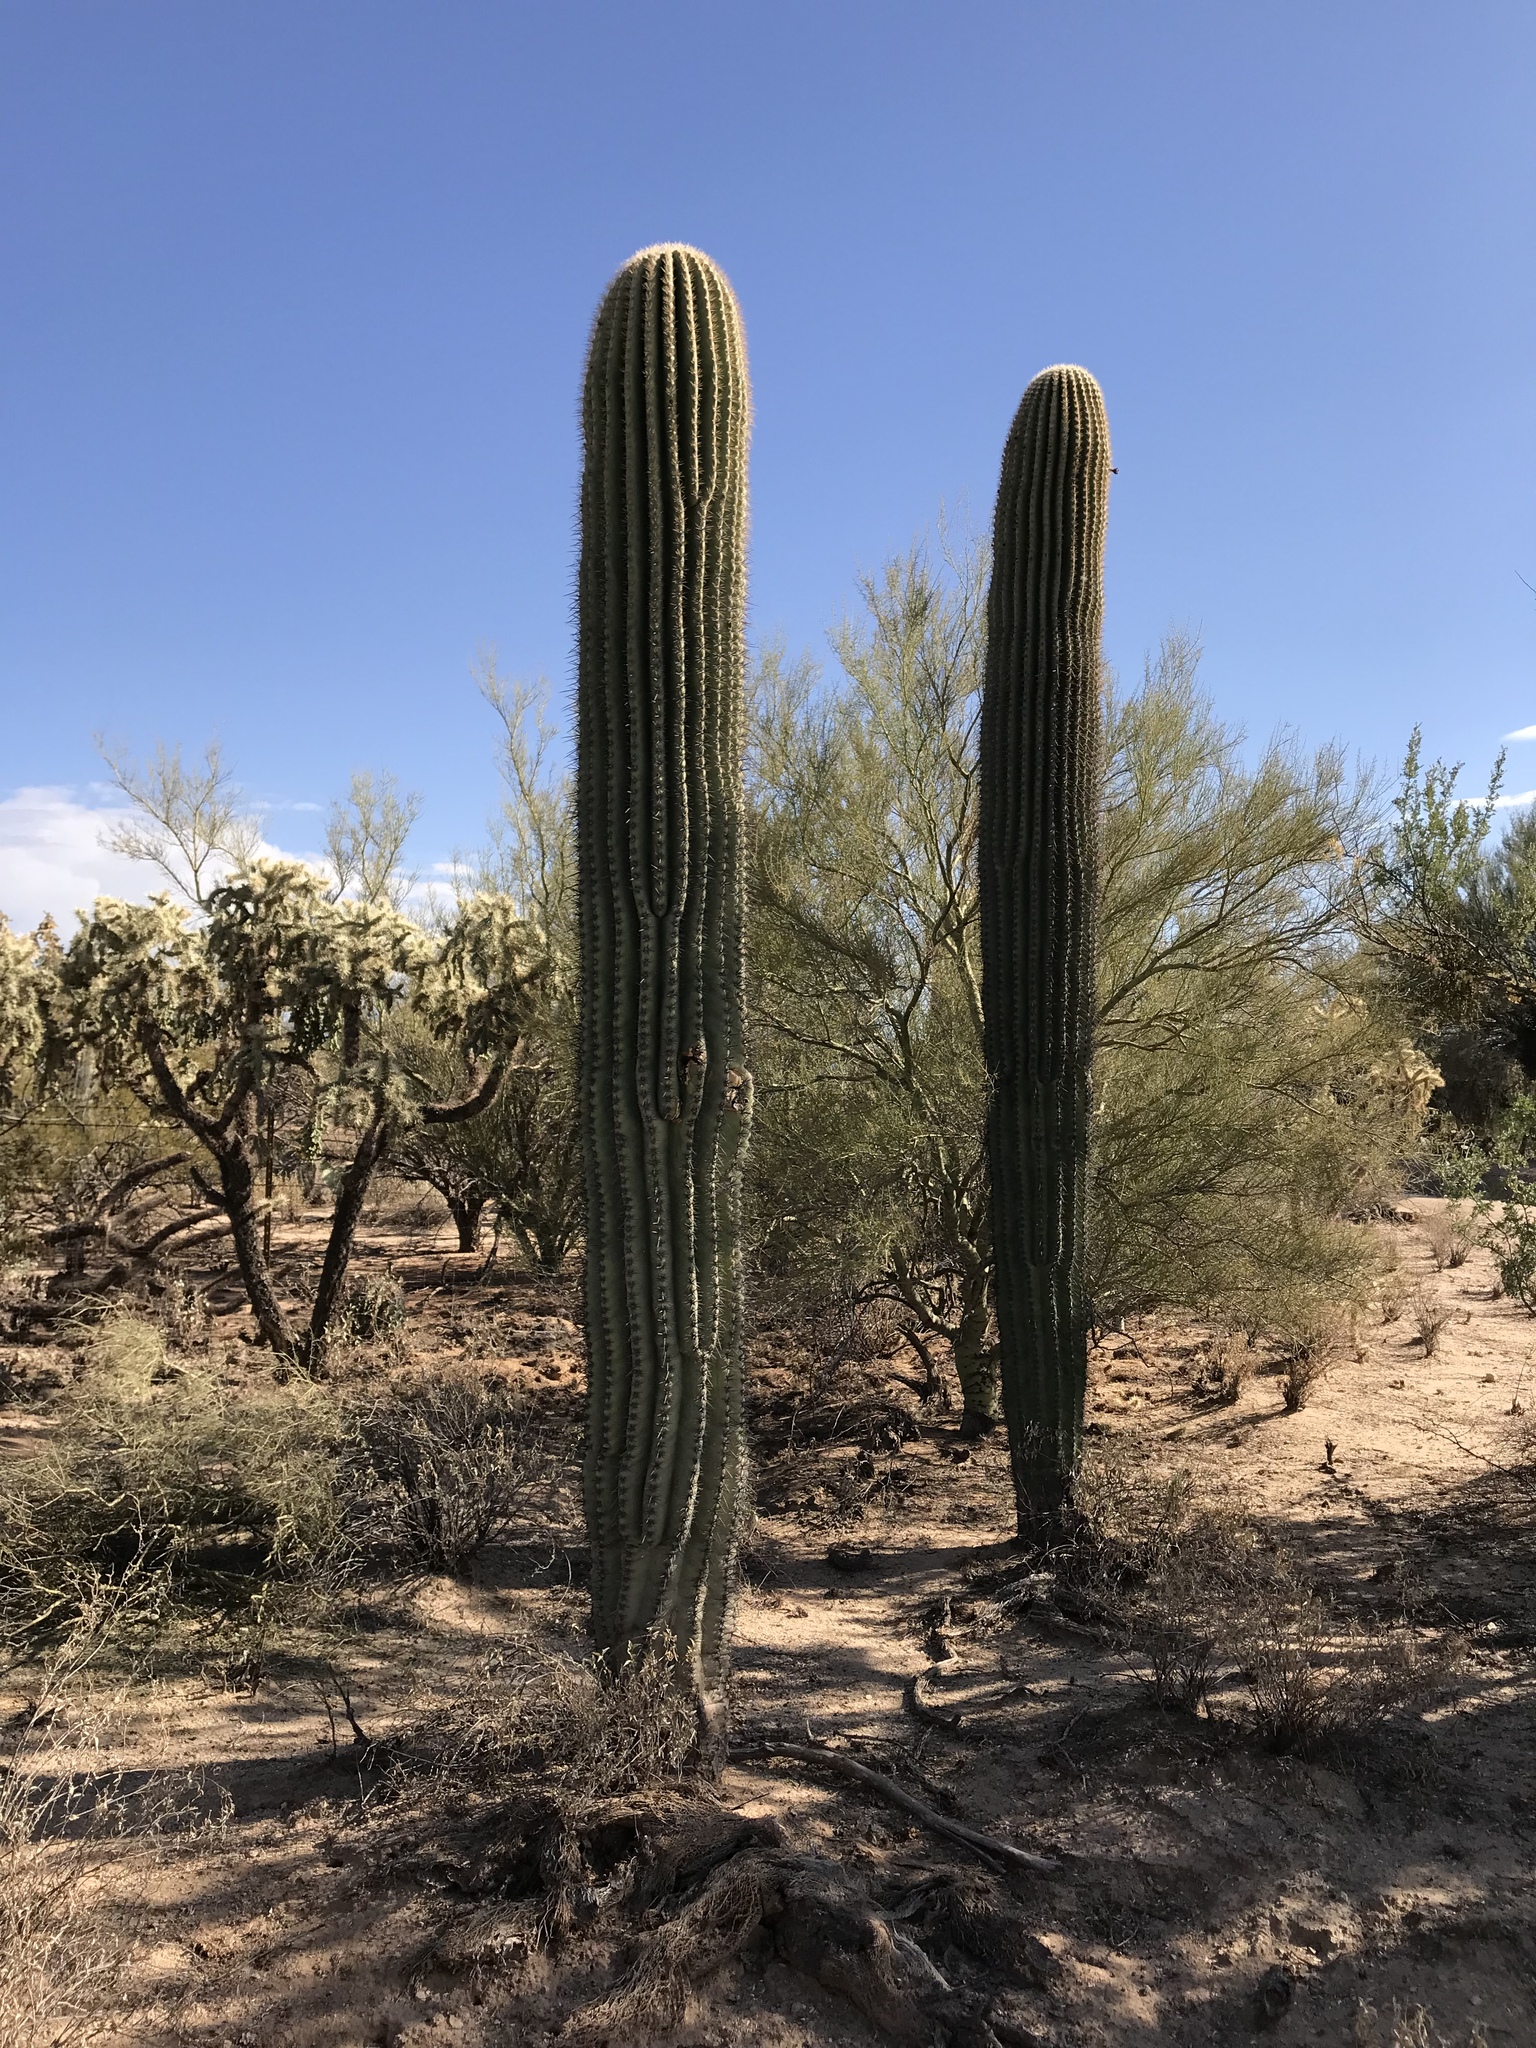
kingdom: Plantae
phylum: Tracheophyta
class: Magnoliopsida
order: Caryophyllales
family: Cactaceae
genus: Carnegiea
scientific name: Carnegiea gigantea
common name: Saguaro
